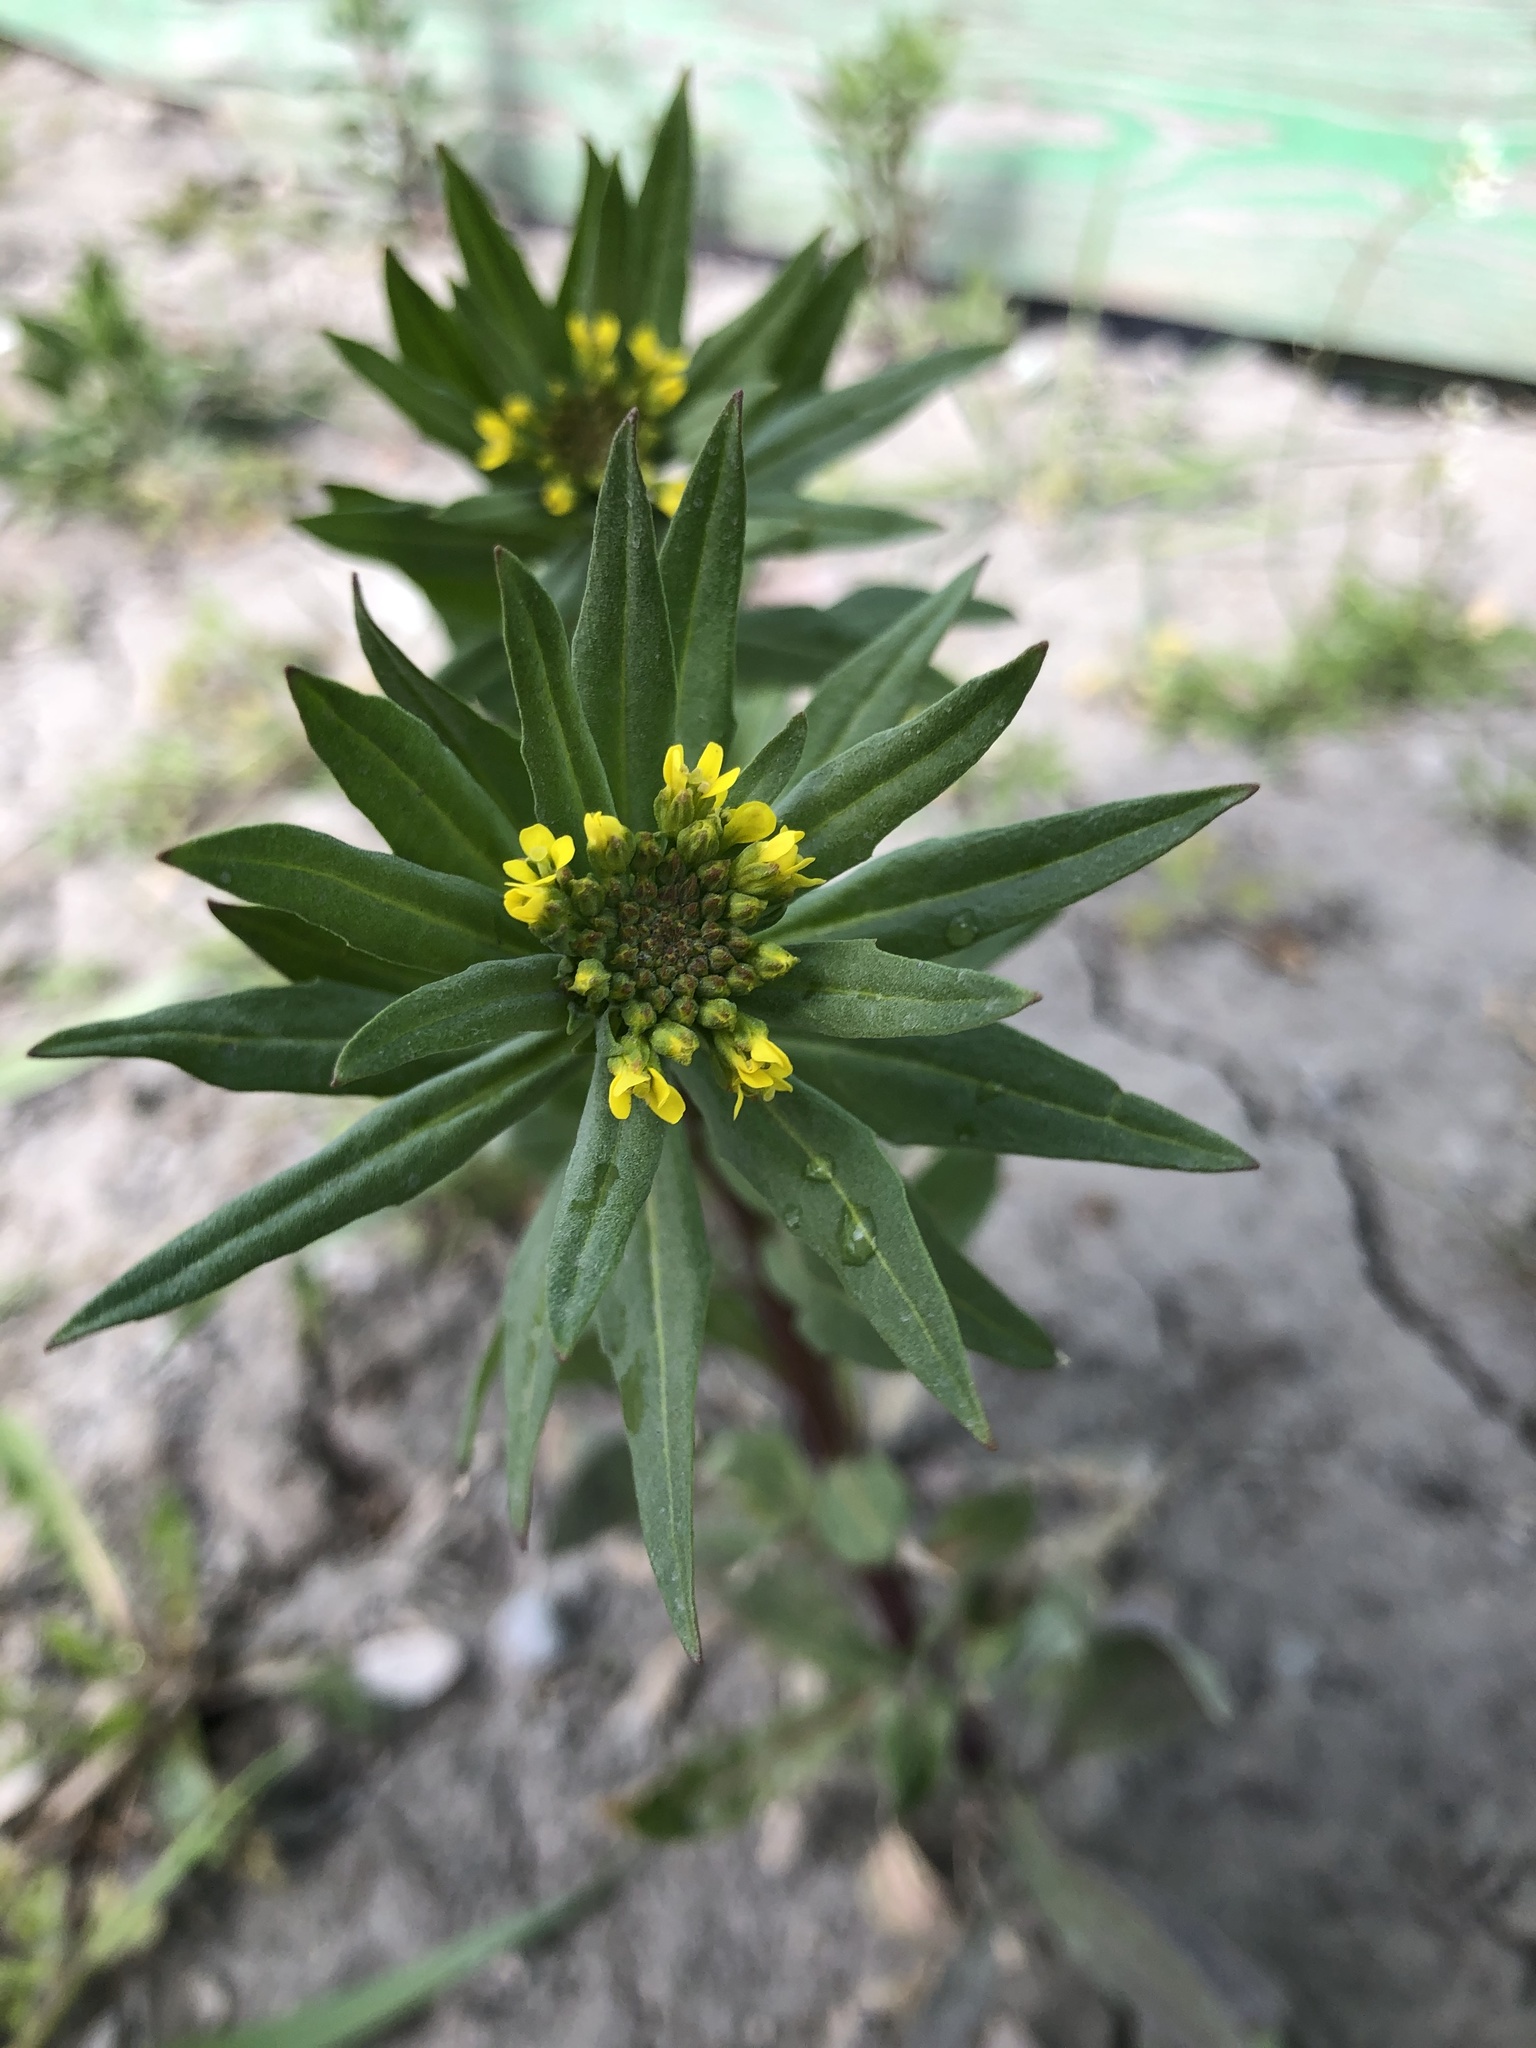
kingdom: Plantae
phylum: Tracheophyta
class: Magnoliopsida
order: Brassicales
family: Brassicaceae
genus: Erysimum
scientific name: Erysimum cheiranthoides
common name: Treacle mustard
